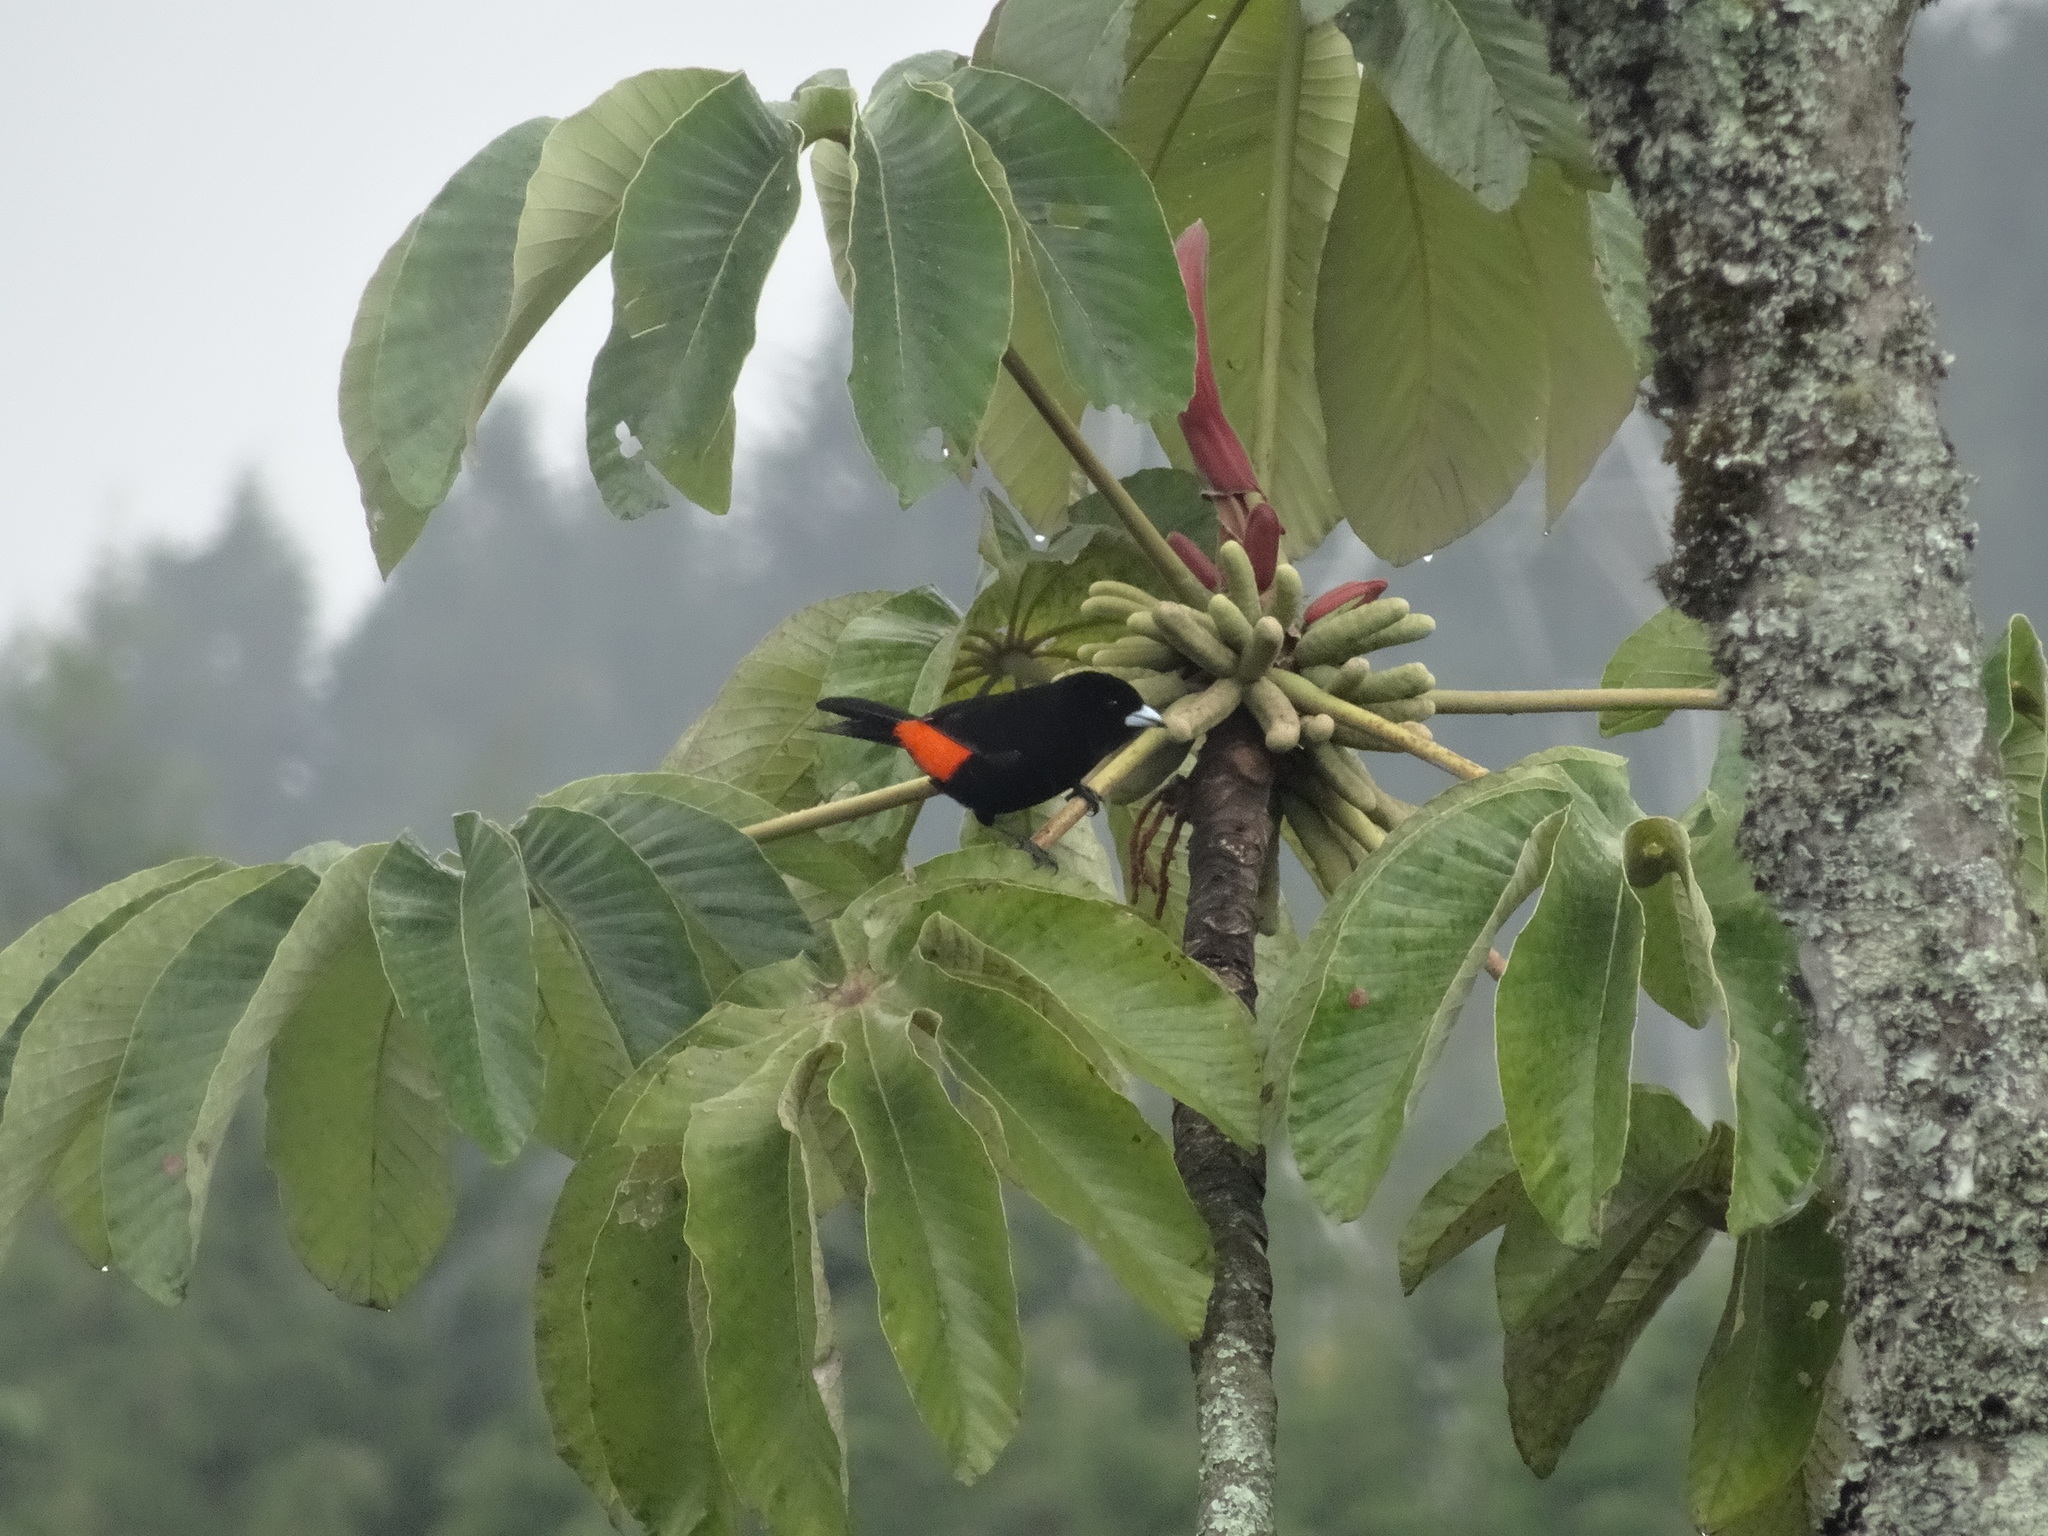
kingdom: Animalia
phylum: Chordata
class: Aves
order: Passeriformes
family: Thraupidae
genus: Ramphocelus
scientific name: Ramphocelus flammigerus
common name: Flame-rumped tanager
